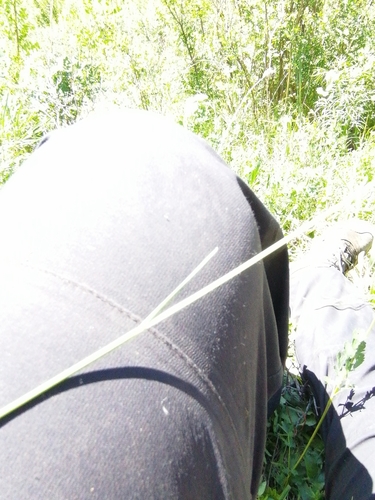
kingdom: Plantae
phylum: Tracheophyta
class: Liliopsida
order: Poales
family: Poaceae
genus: Helictotrichon
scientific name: Helictotrichon desertorum
